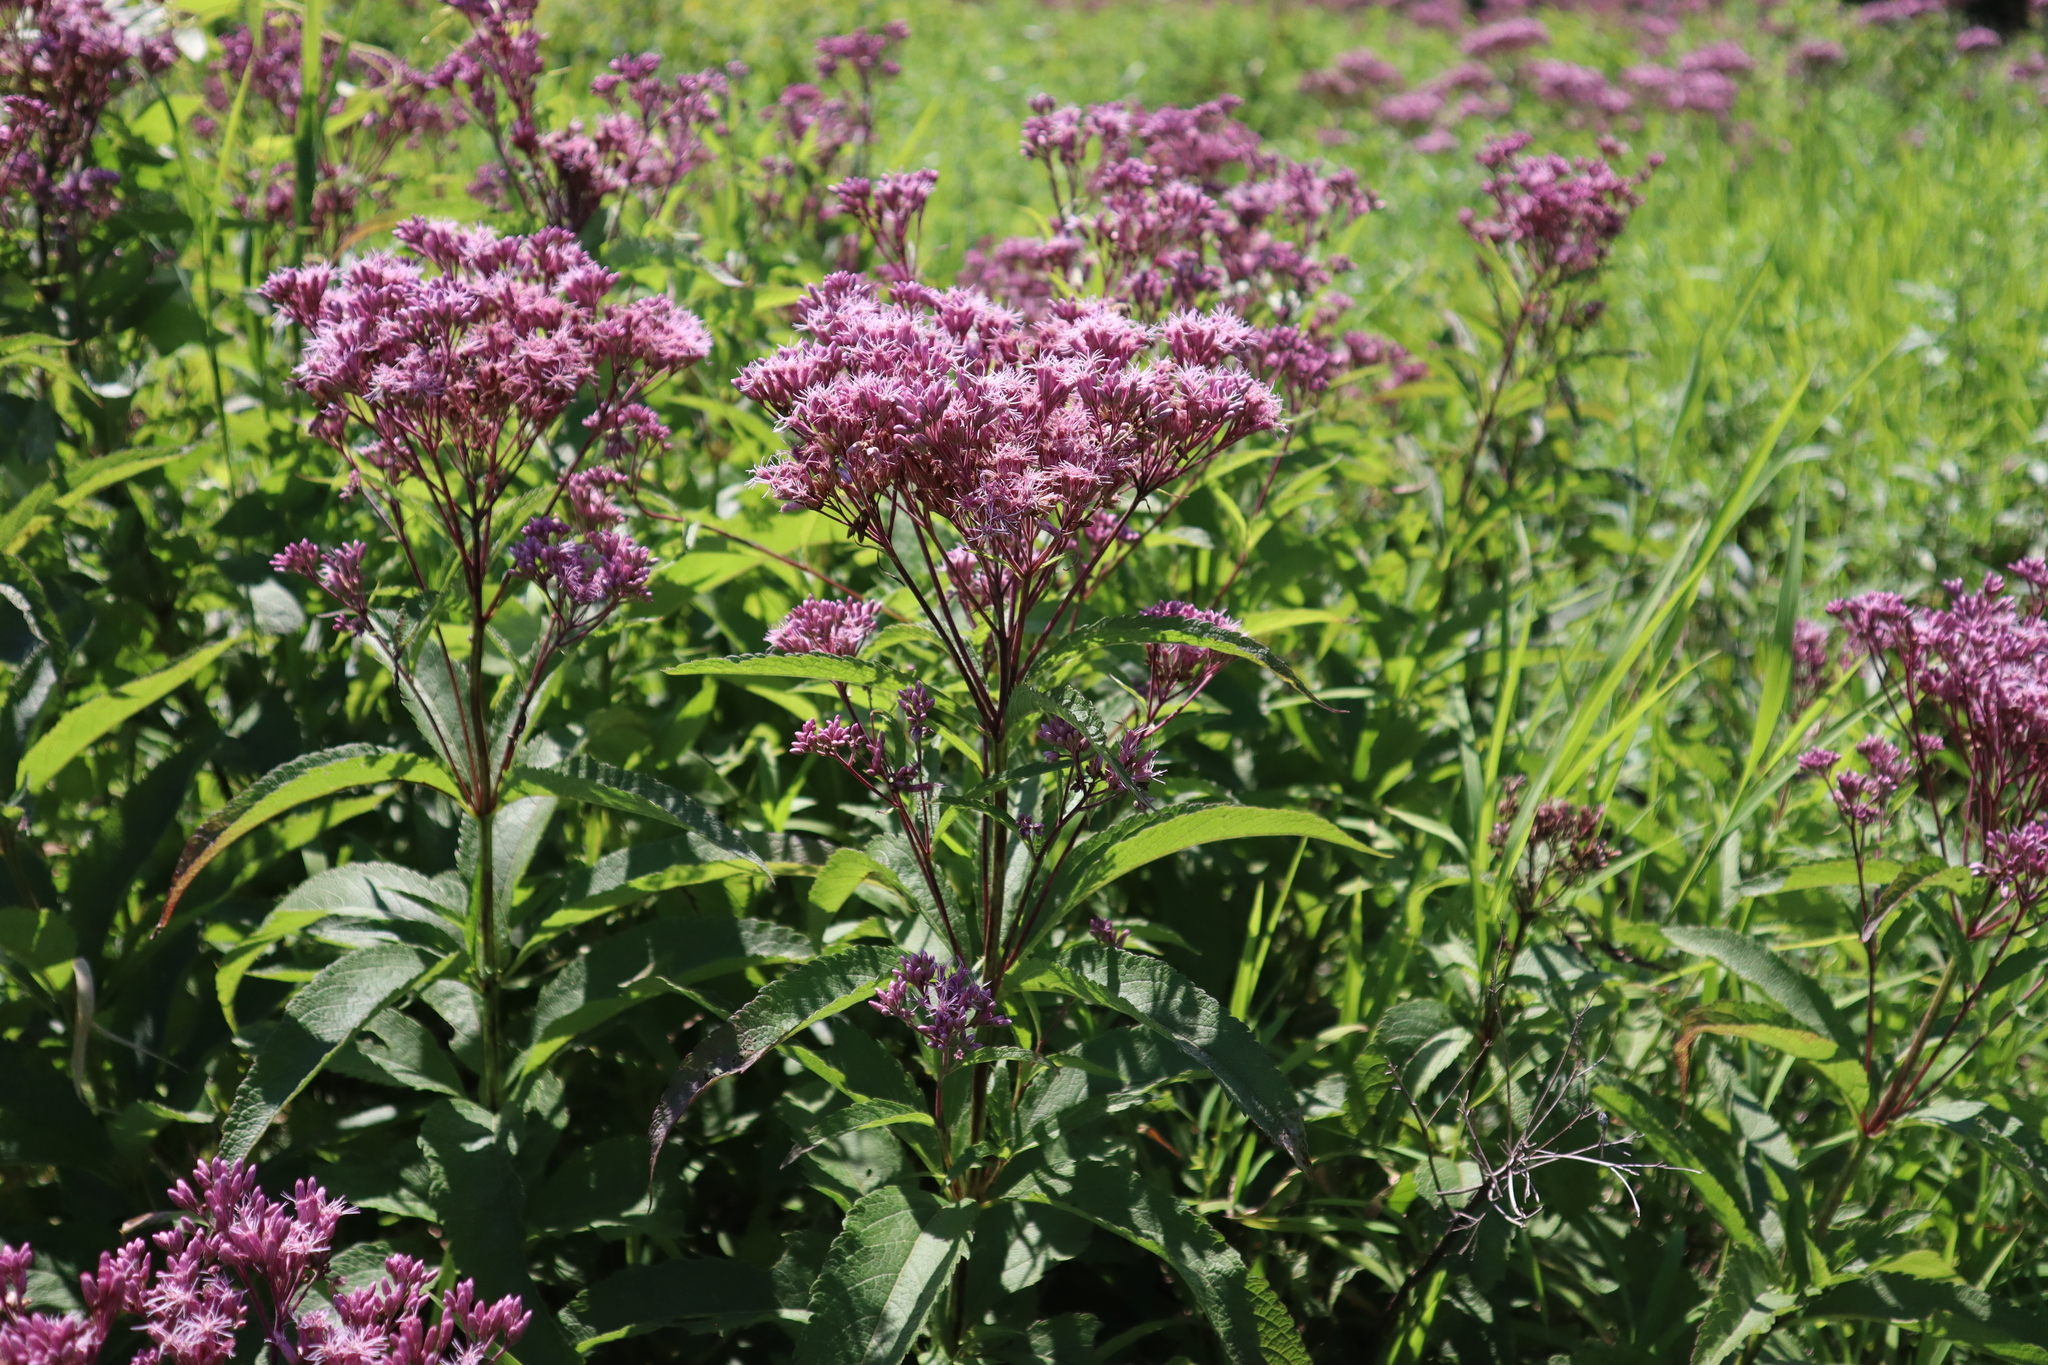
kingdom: Plantae
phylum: Tracheophyta
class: Magnoliopsida
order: Asterales
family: Asteraceae
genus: Eutrochium
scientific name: Eutrochium maculatum
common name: Spotted joe pye weed
